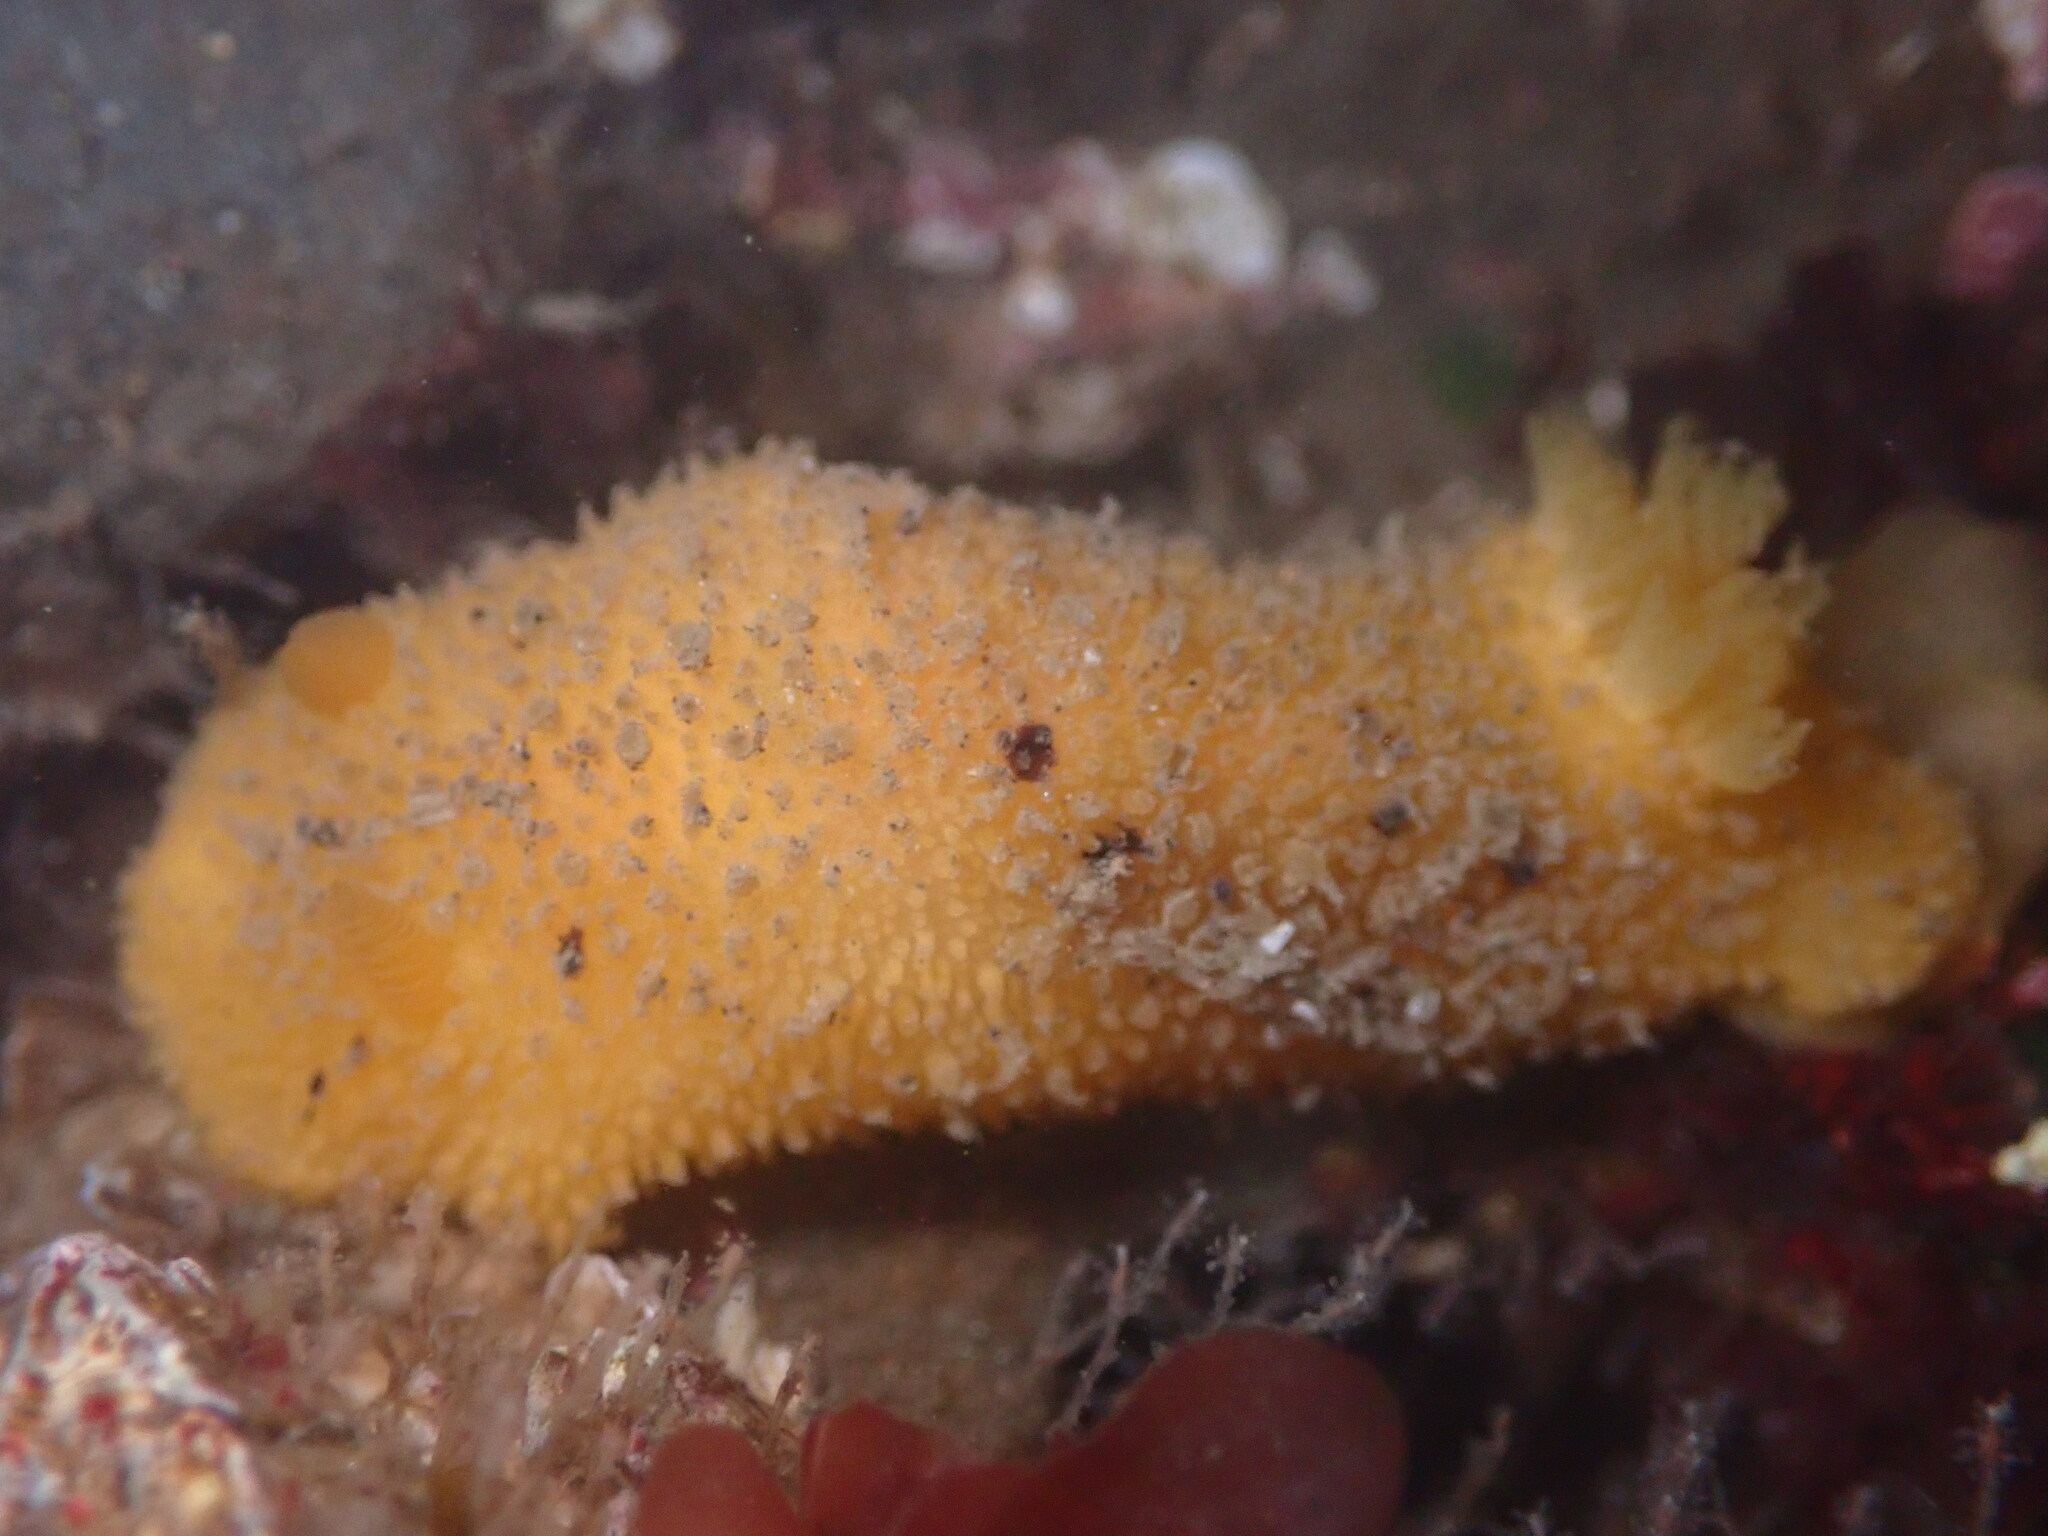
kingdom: Animalia
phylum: Mollusca
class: Gastropoda
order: Nudibranchia
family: Dorididae
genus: Doris
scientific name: Doris montereyensis
